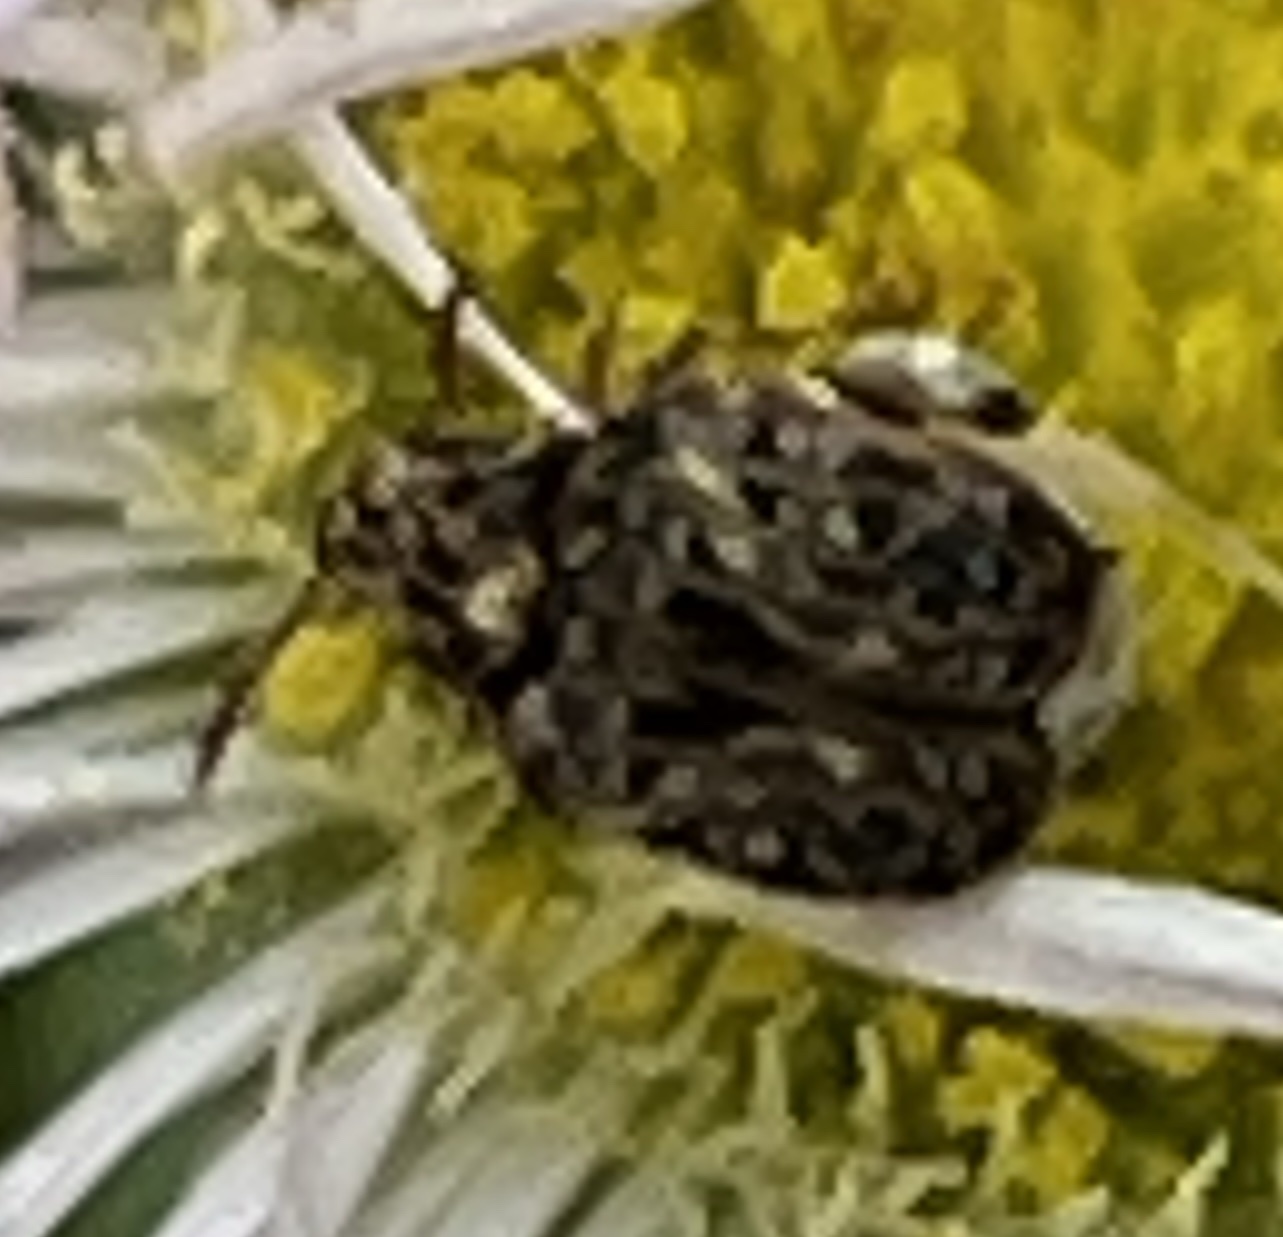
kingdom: Animalia
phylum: Arthropoda
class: Insecta
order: Coleoptera
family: Chrysomelidae
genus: Gibbobruchus
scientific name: Gibbobruchus mimus
